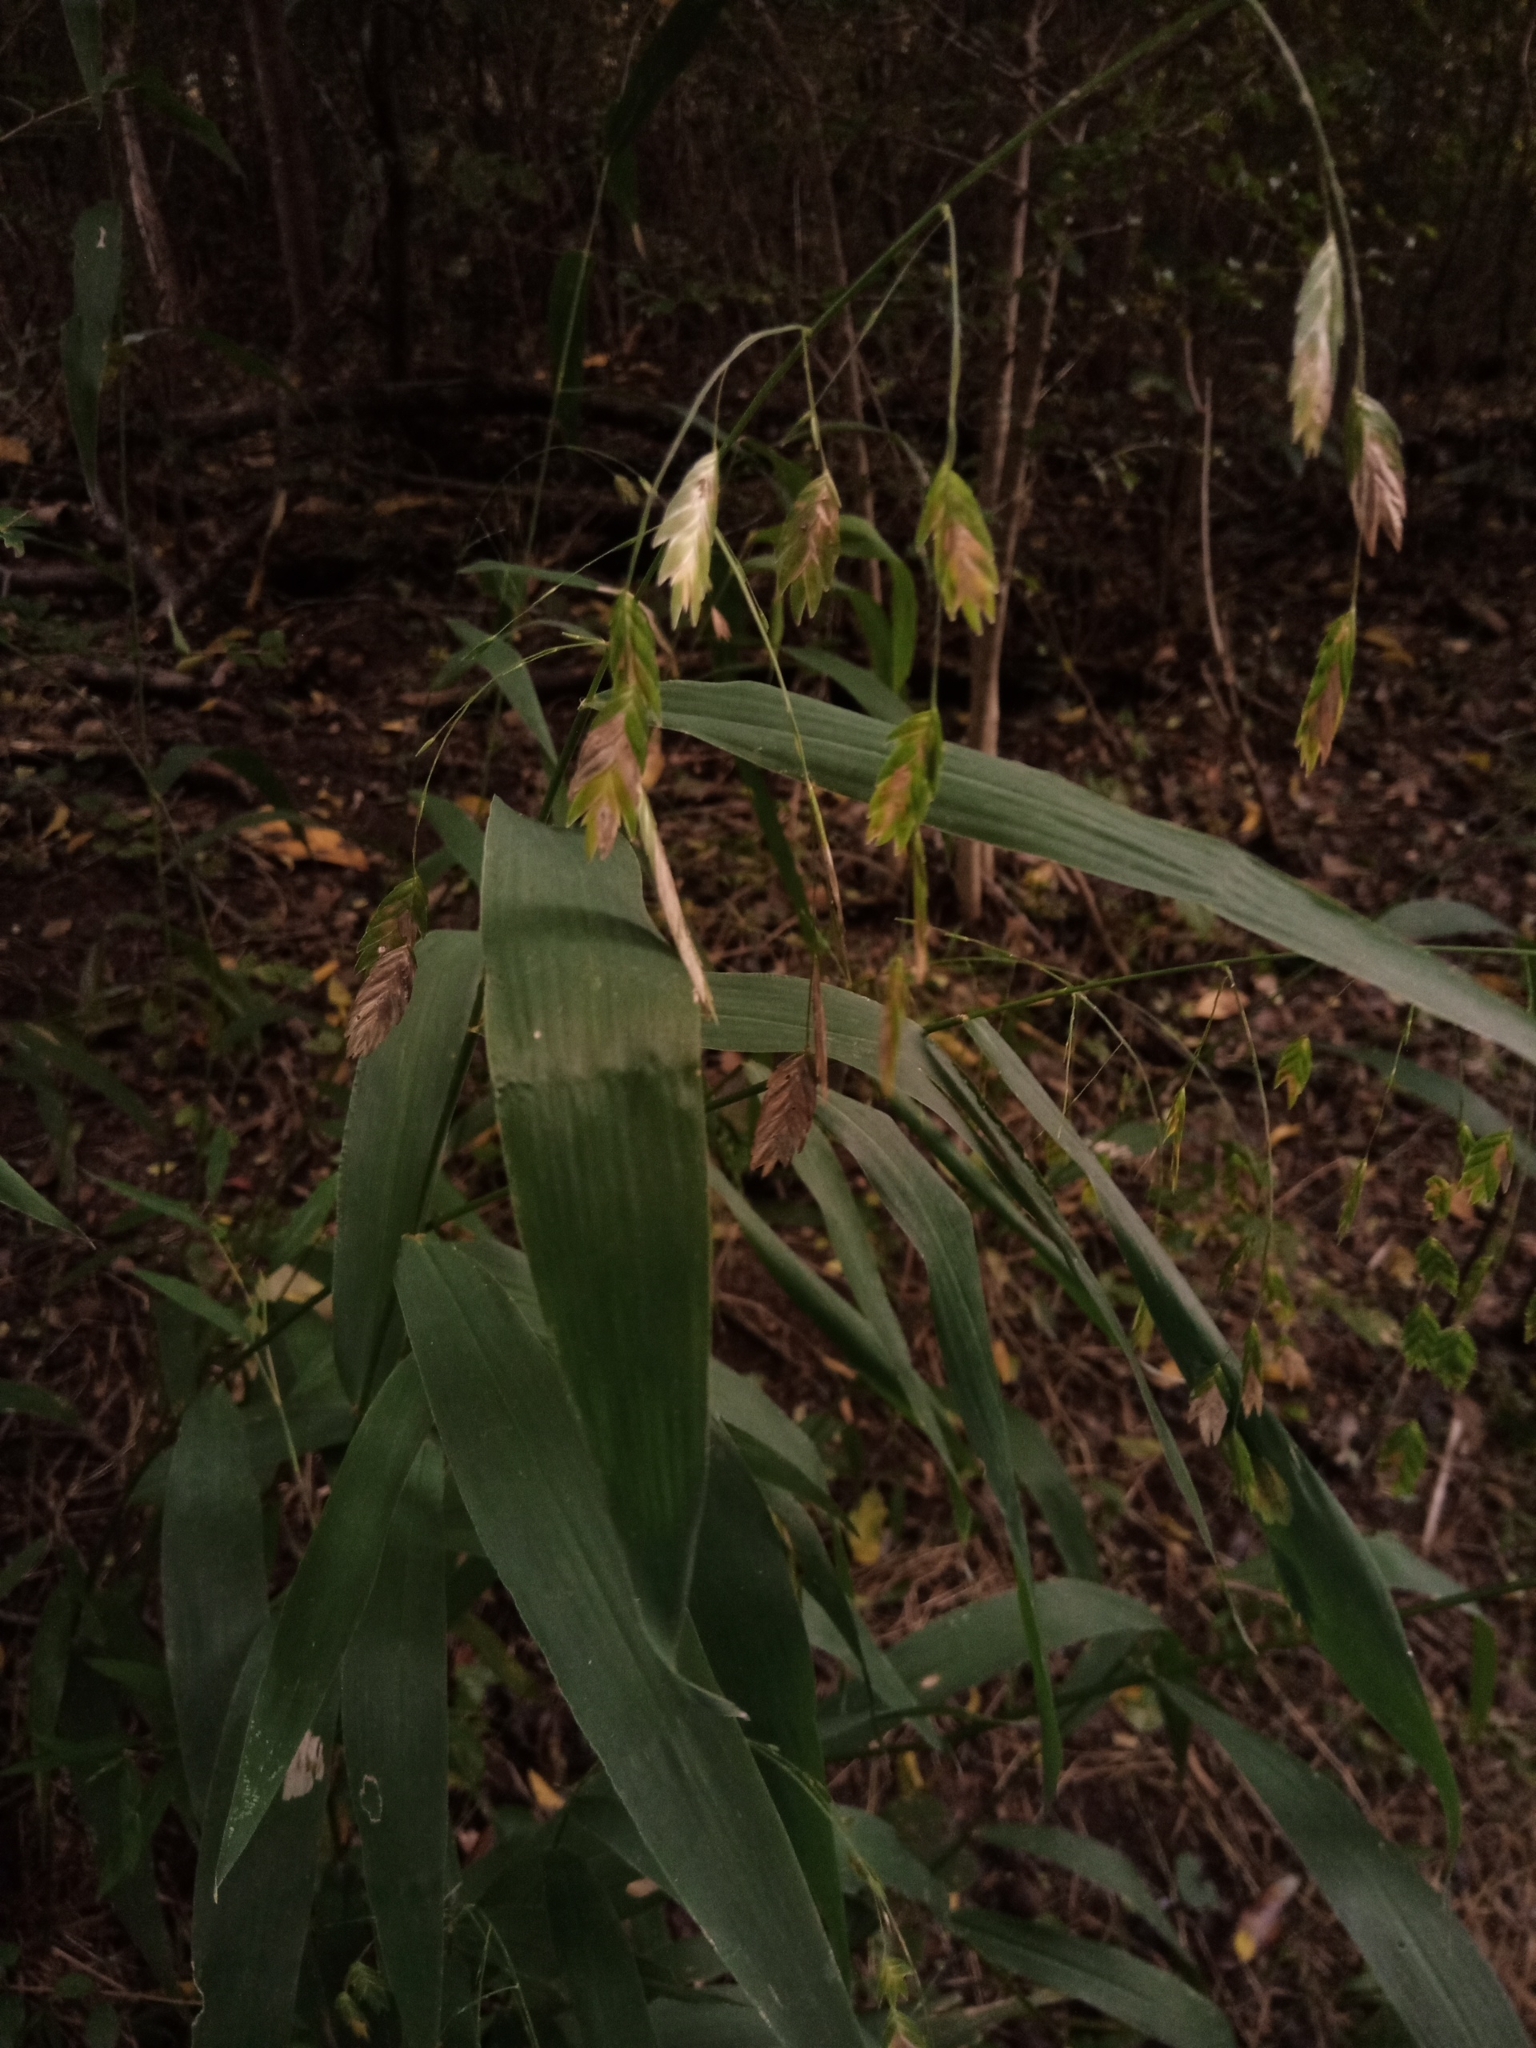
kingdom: Plantae
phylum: Tracheophyta
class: Liliopsida
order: Poales
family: Poaceae
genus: Chasmanthium
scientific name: Chasmanthium latifolium
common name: Broad-leaved chasmanthium
